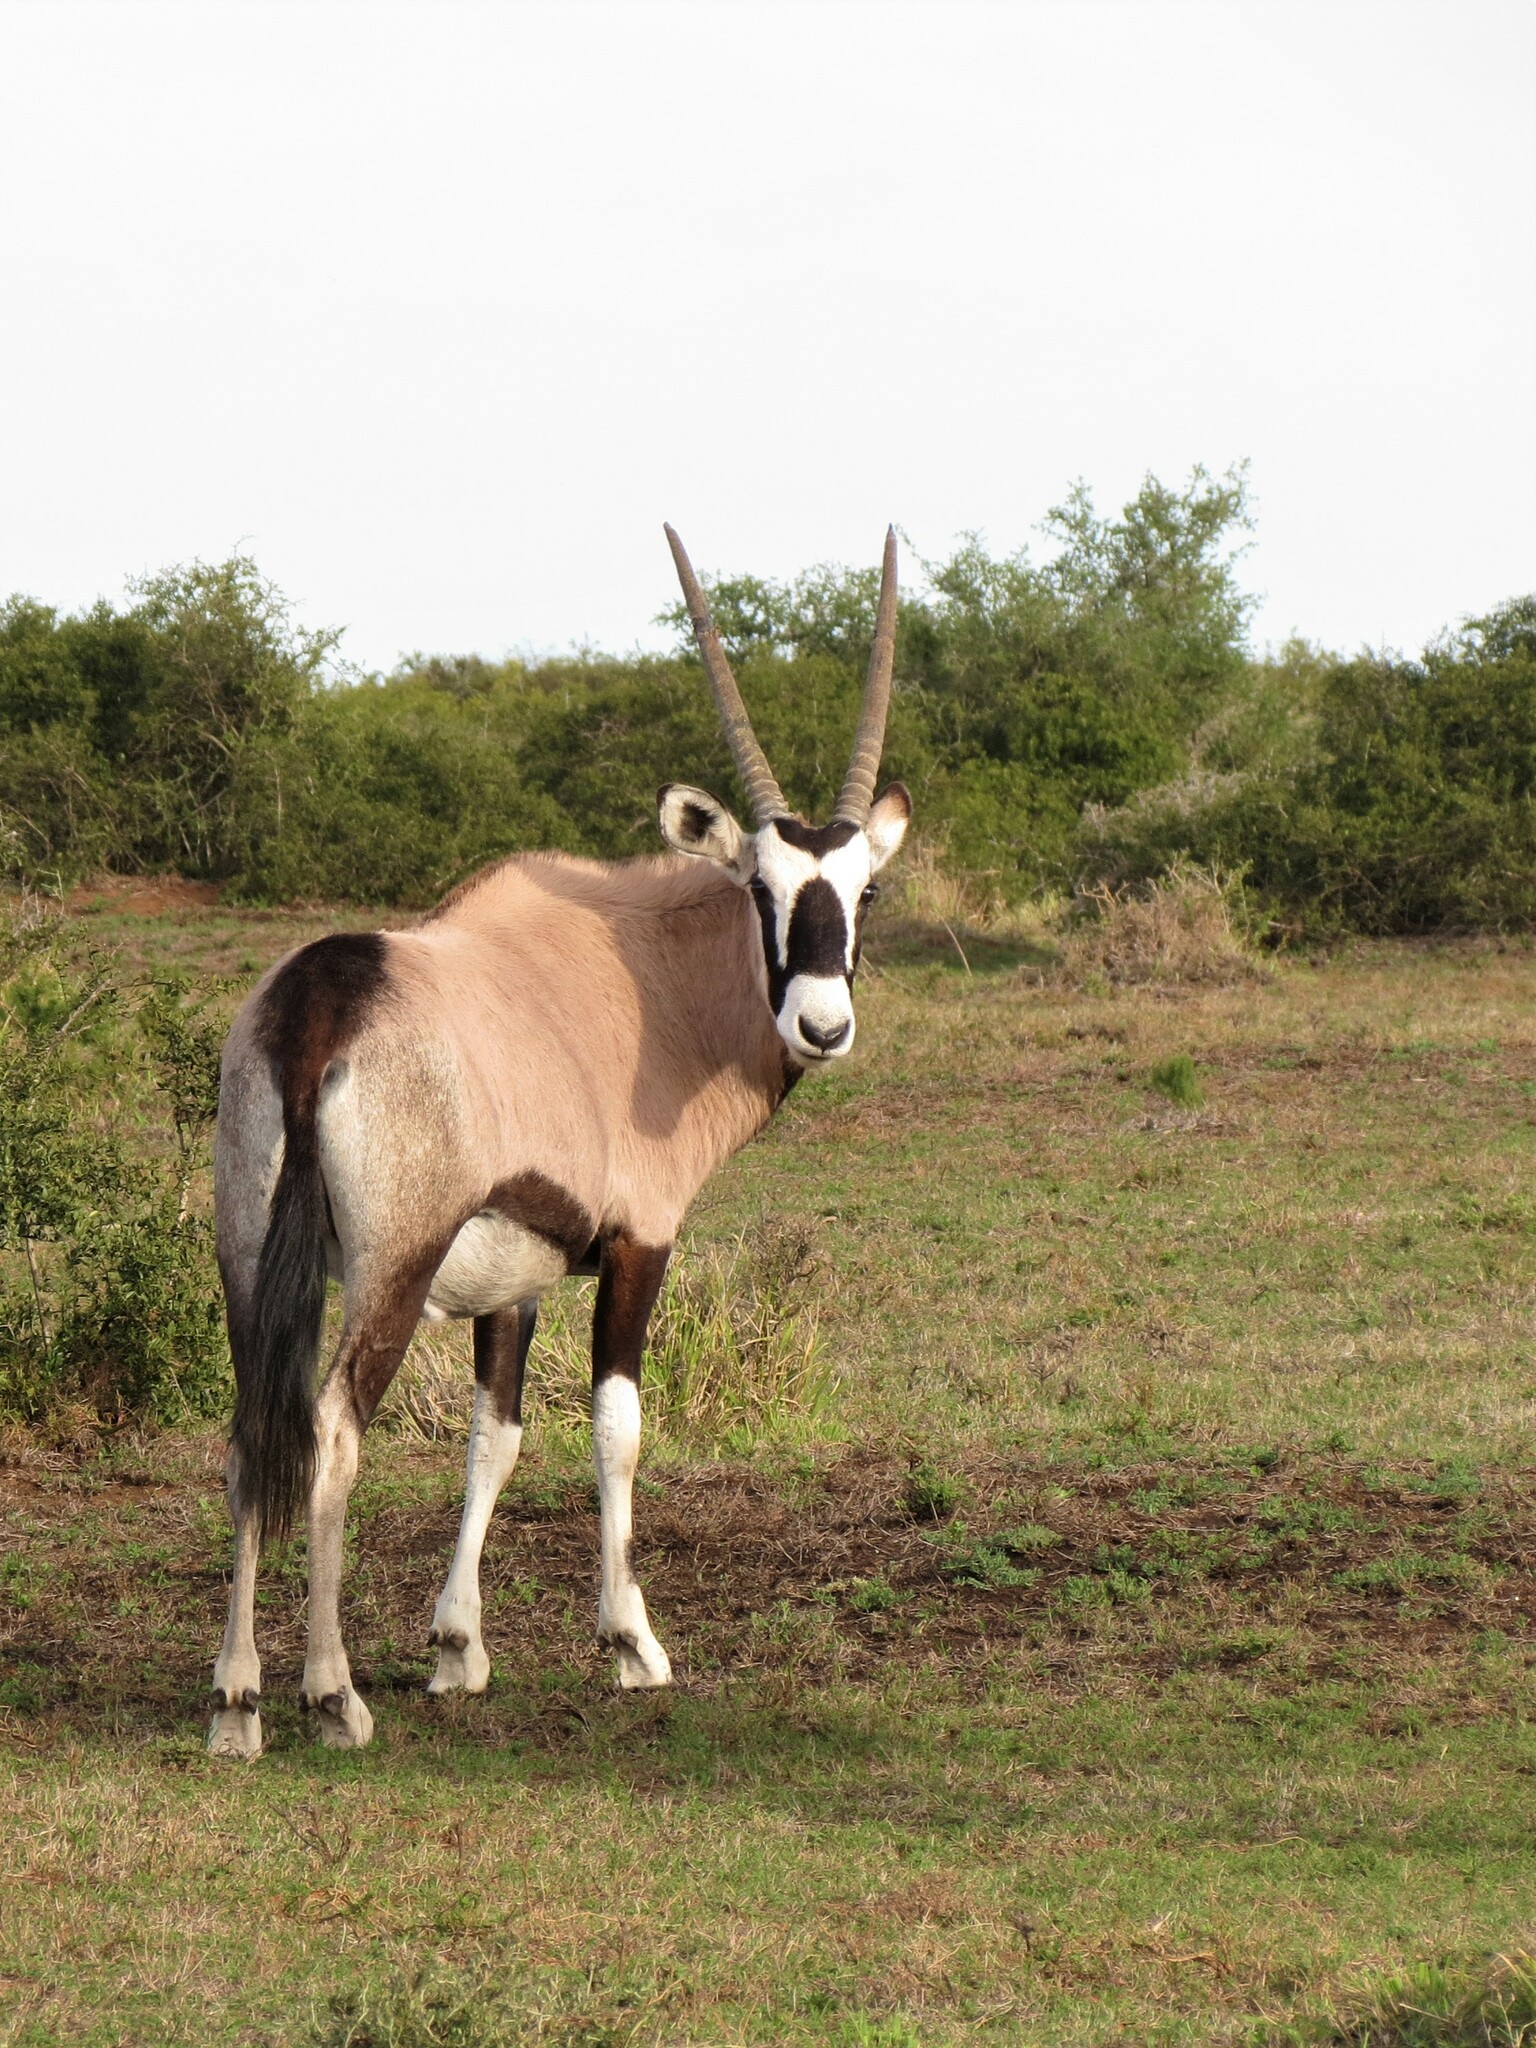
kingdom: Animalia
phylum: Chordata
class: Mammalia
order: Artiodactyla
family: Bovidae
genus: Oryx
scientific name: Oryx gazella
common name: Gemsbok
